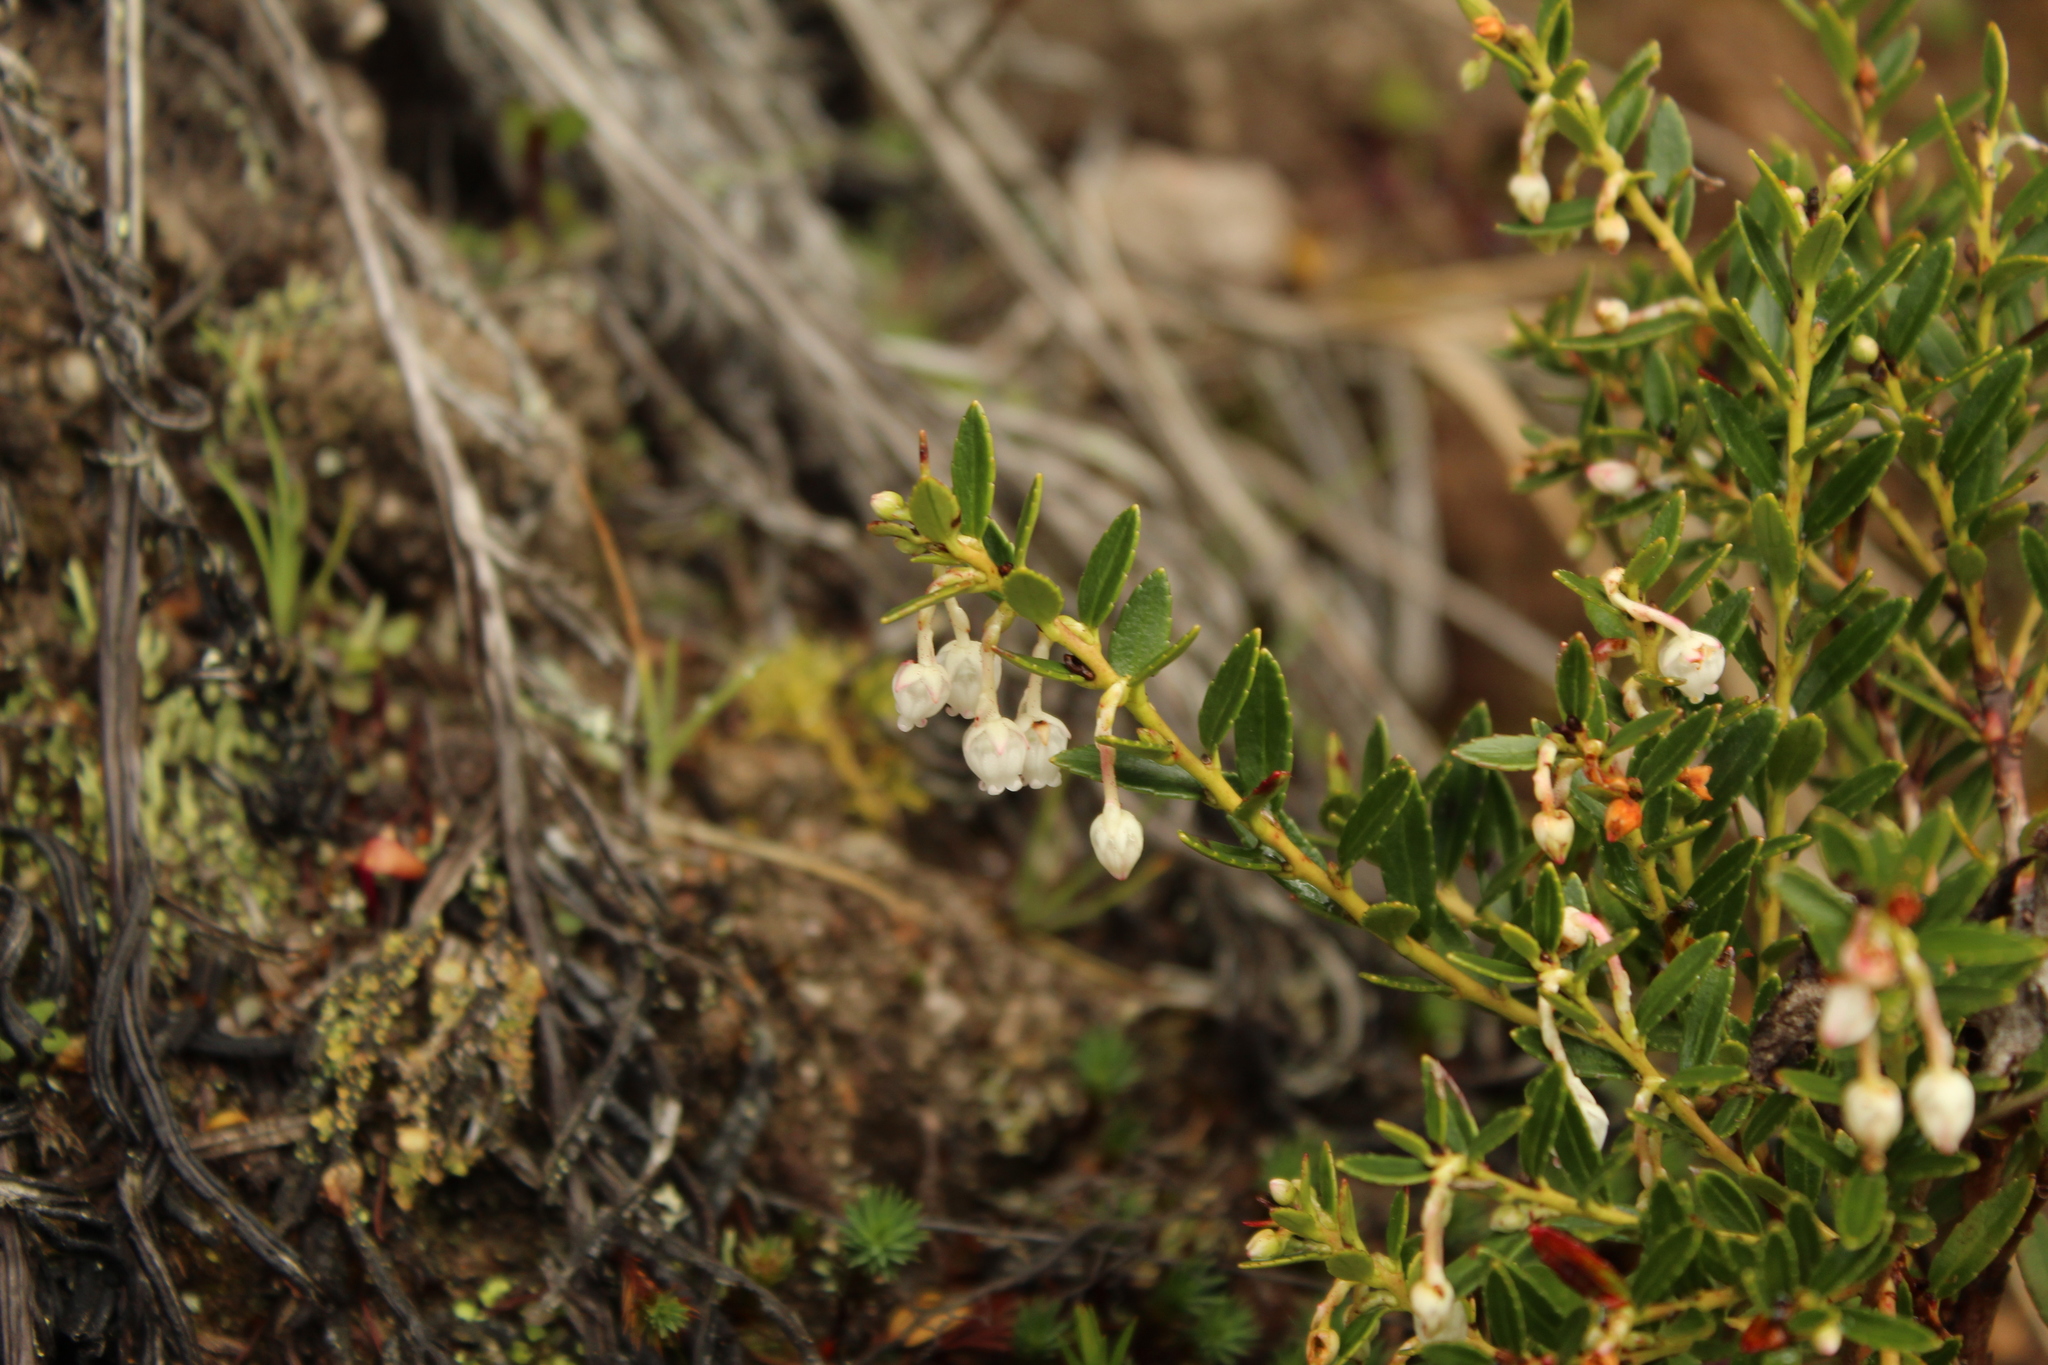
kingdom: Plantae
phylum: Tracheophyta
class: Magnoliopsida
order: Ericales
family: Ericaceae
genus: Gaultheria
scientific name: Gaultheria myrsinoides
